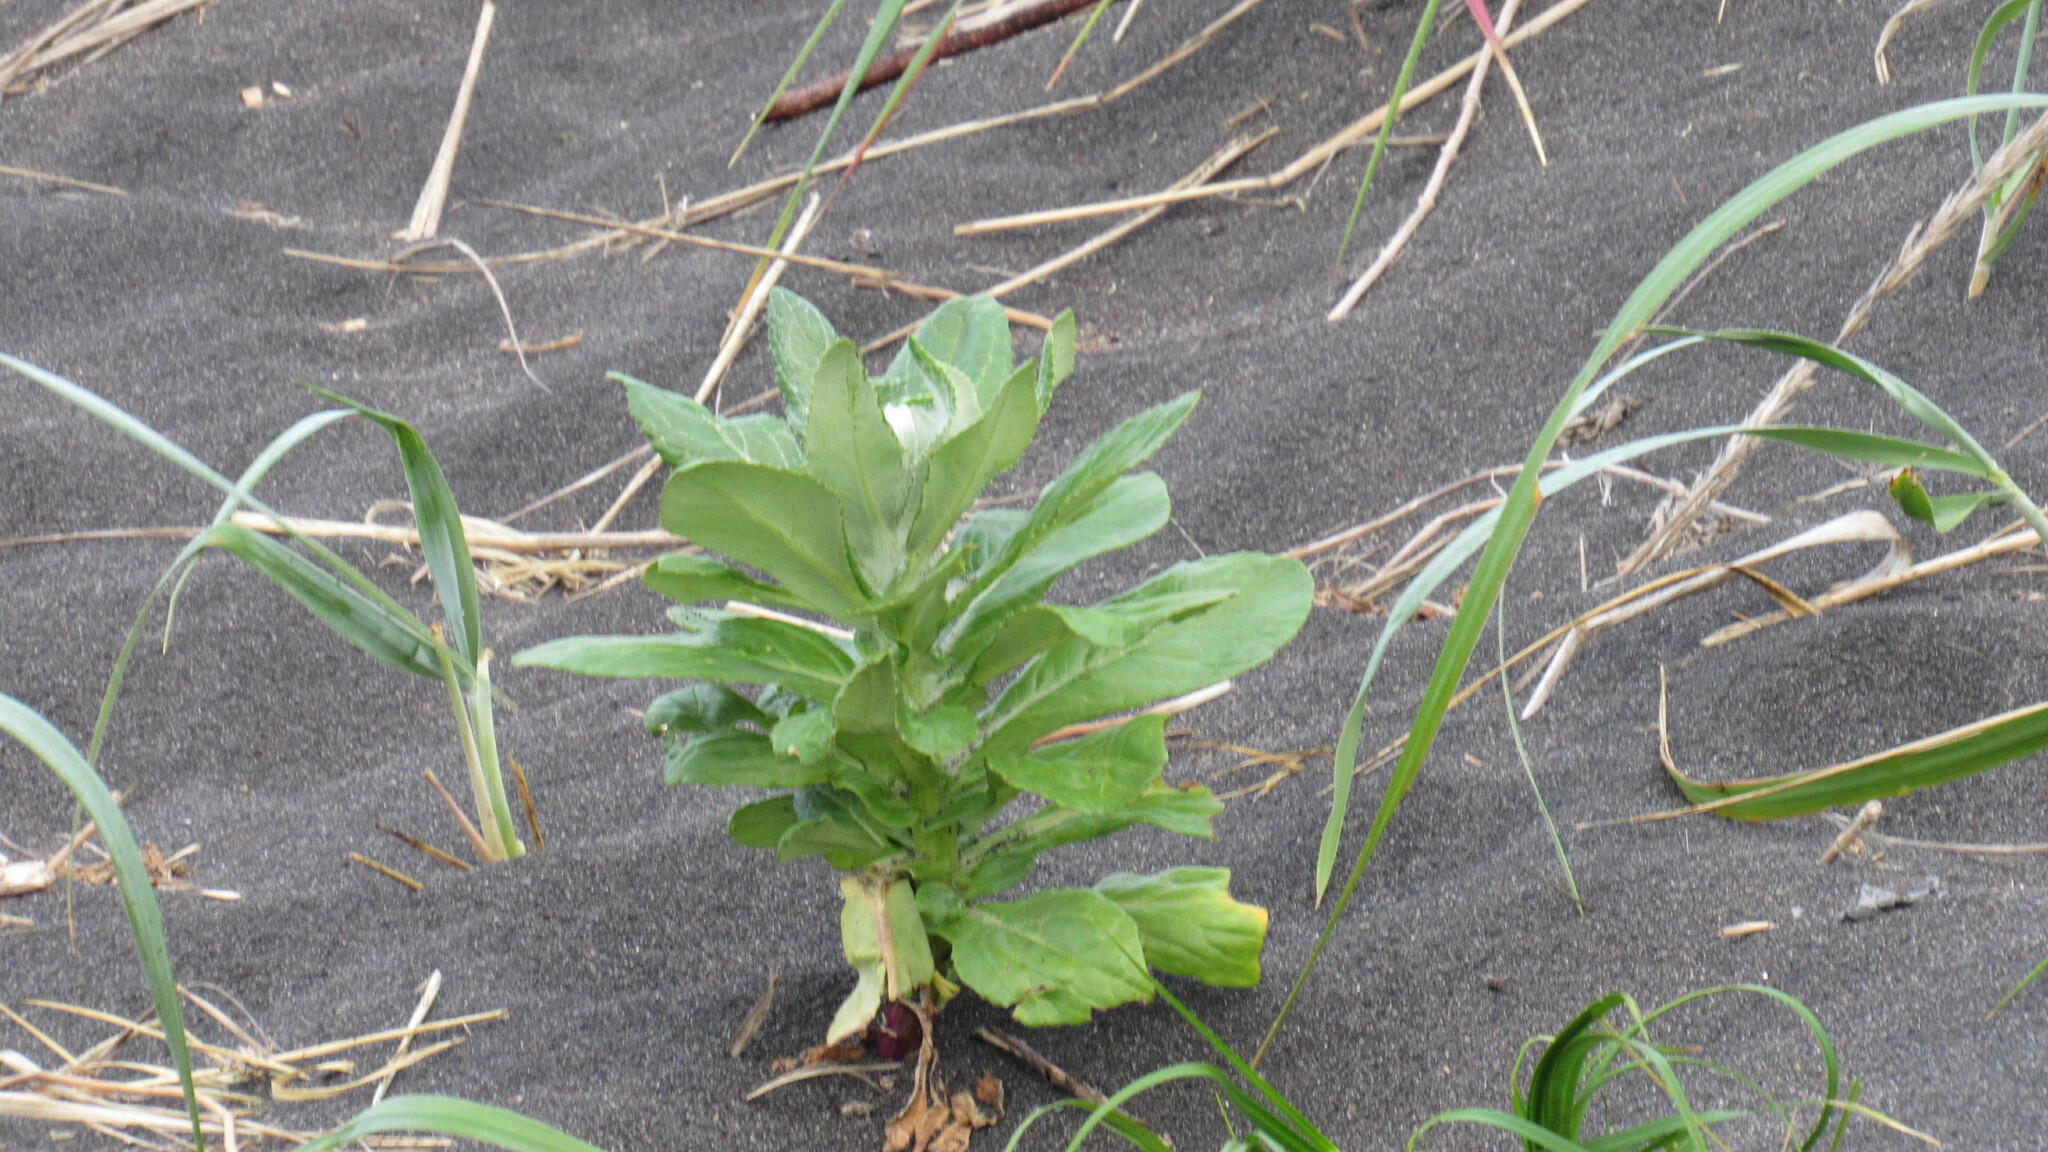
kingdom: Plantae
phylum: Tracheophyta
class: Magnoliopsida
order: Asterales
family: Asteraceae
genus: Jacobaea
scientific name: Jacobaea pseudoarnica
